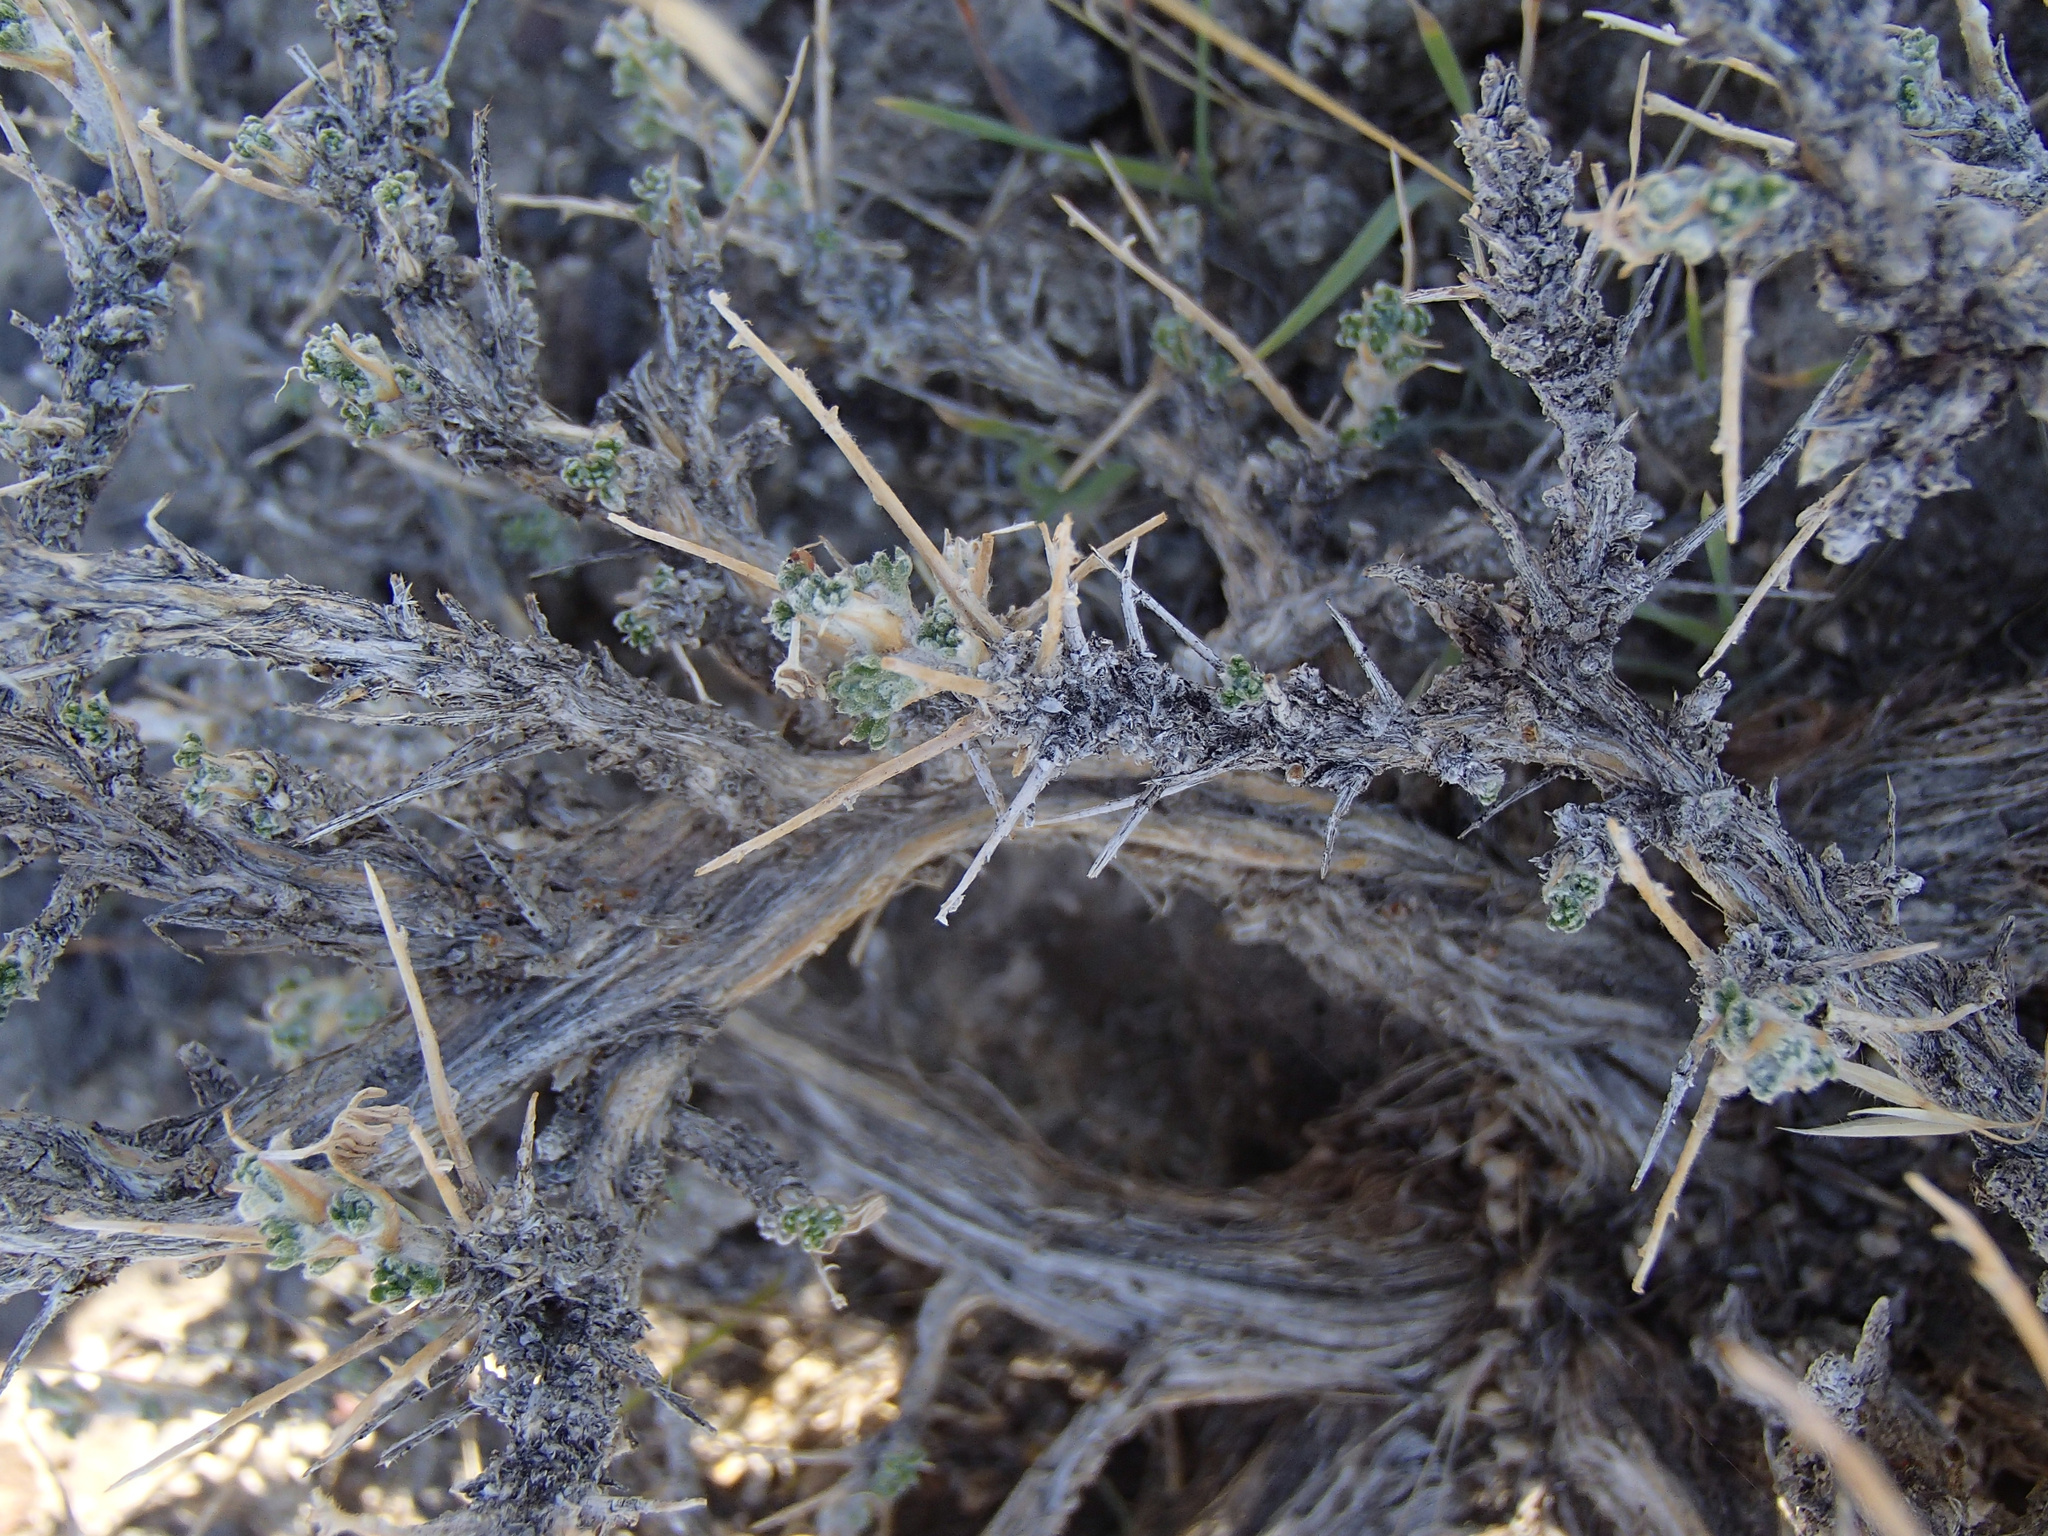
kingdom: Plantae
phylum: Tracheophyta
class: Magnoliopsida
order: Asterales
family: Asteraceae
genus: Artemisia
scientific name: Artemisia spinescens
